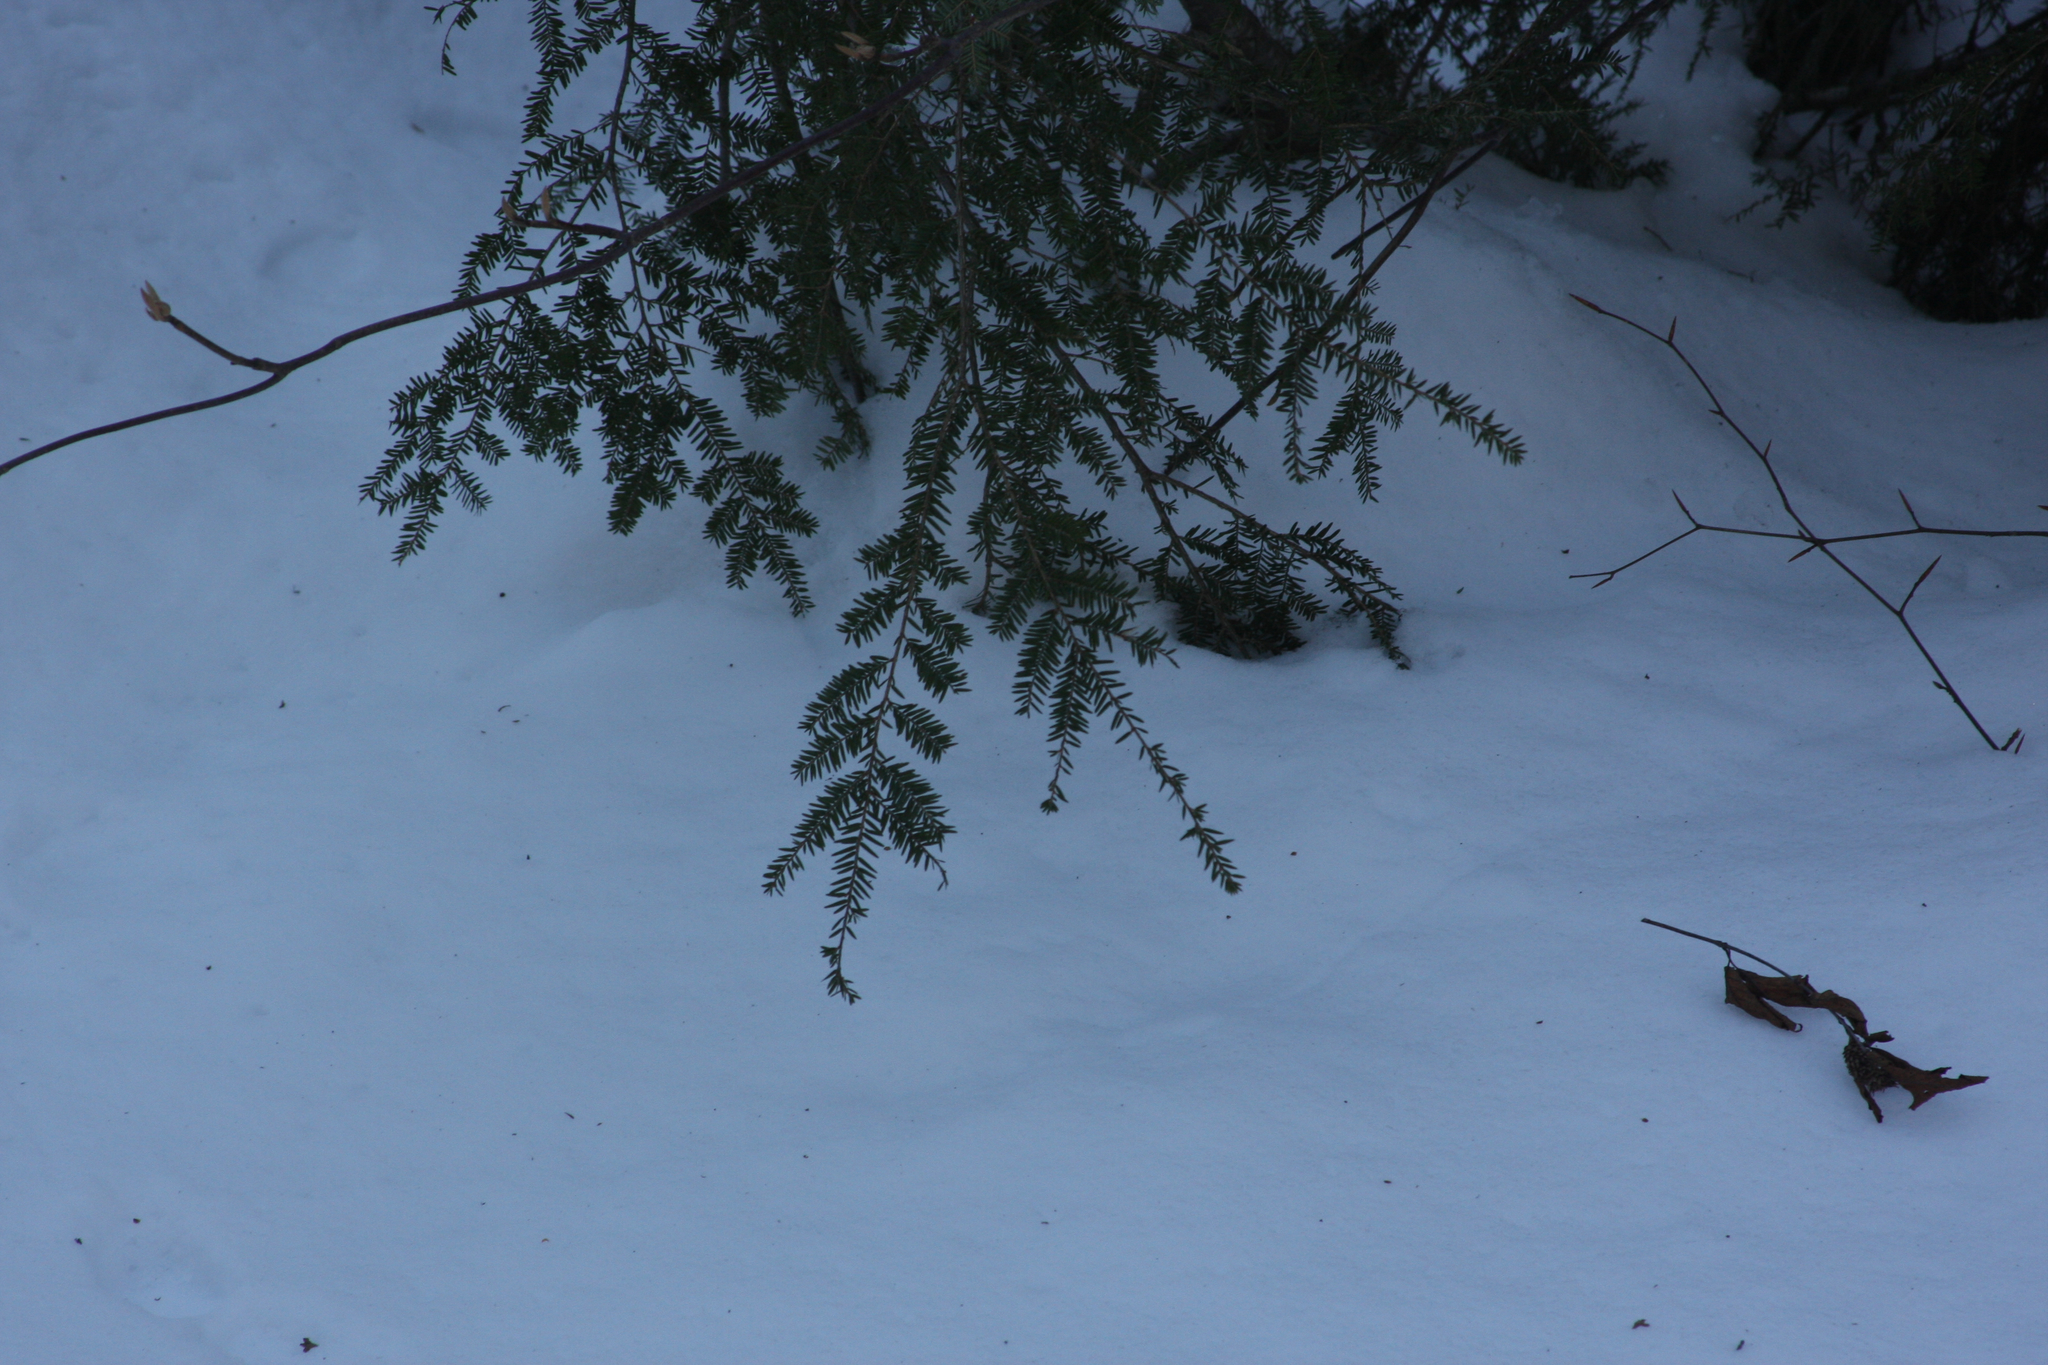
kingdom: Plantae
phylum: Tracheophyta
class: Pinopsida
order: Pinales
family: Pinaceae
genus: Tsuga
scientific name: Tsuga canadensis
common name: Eastern hemlock
